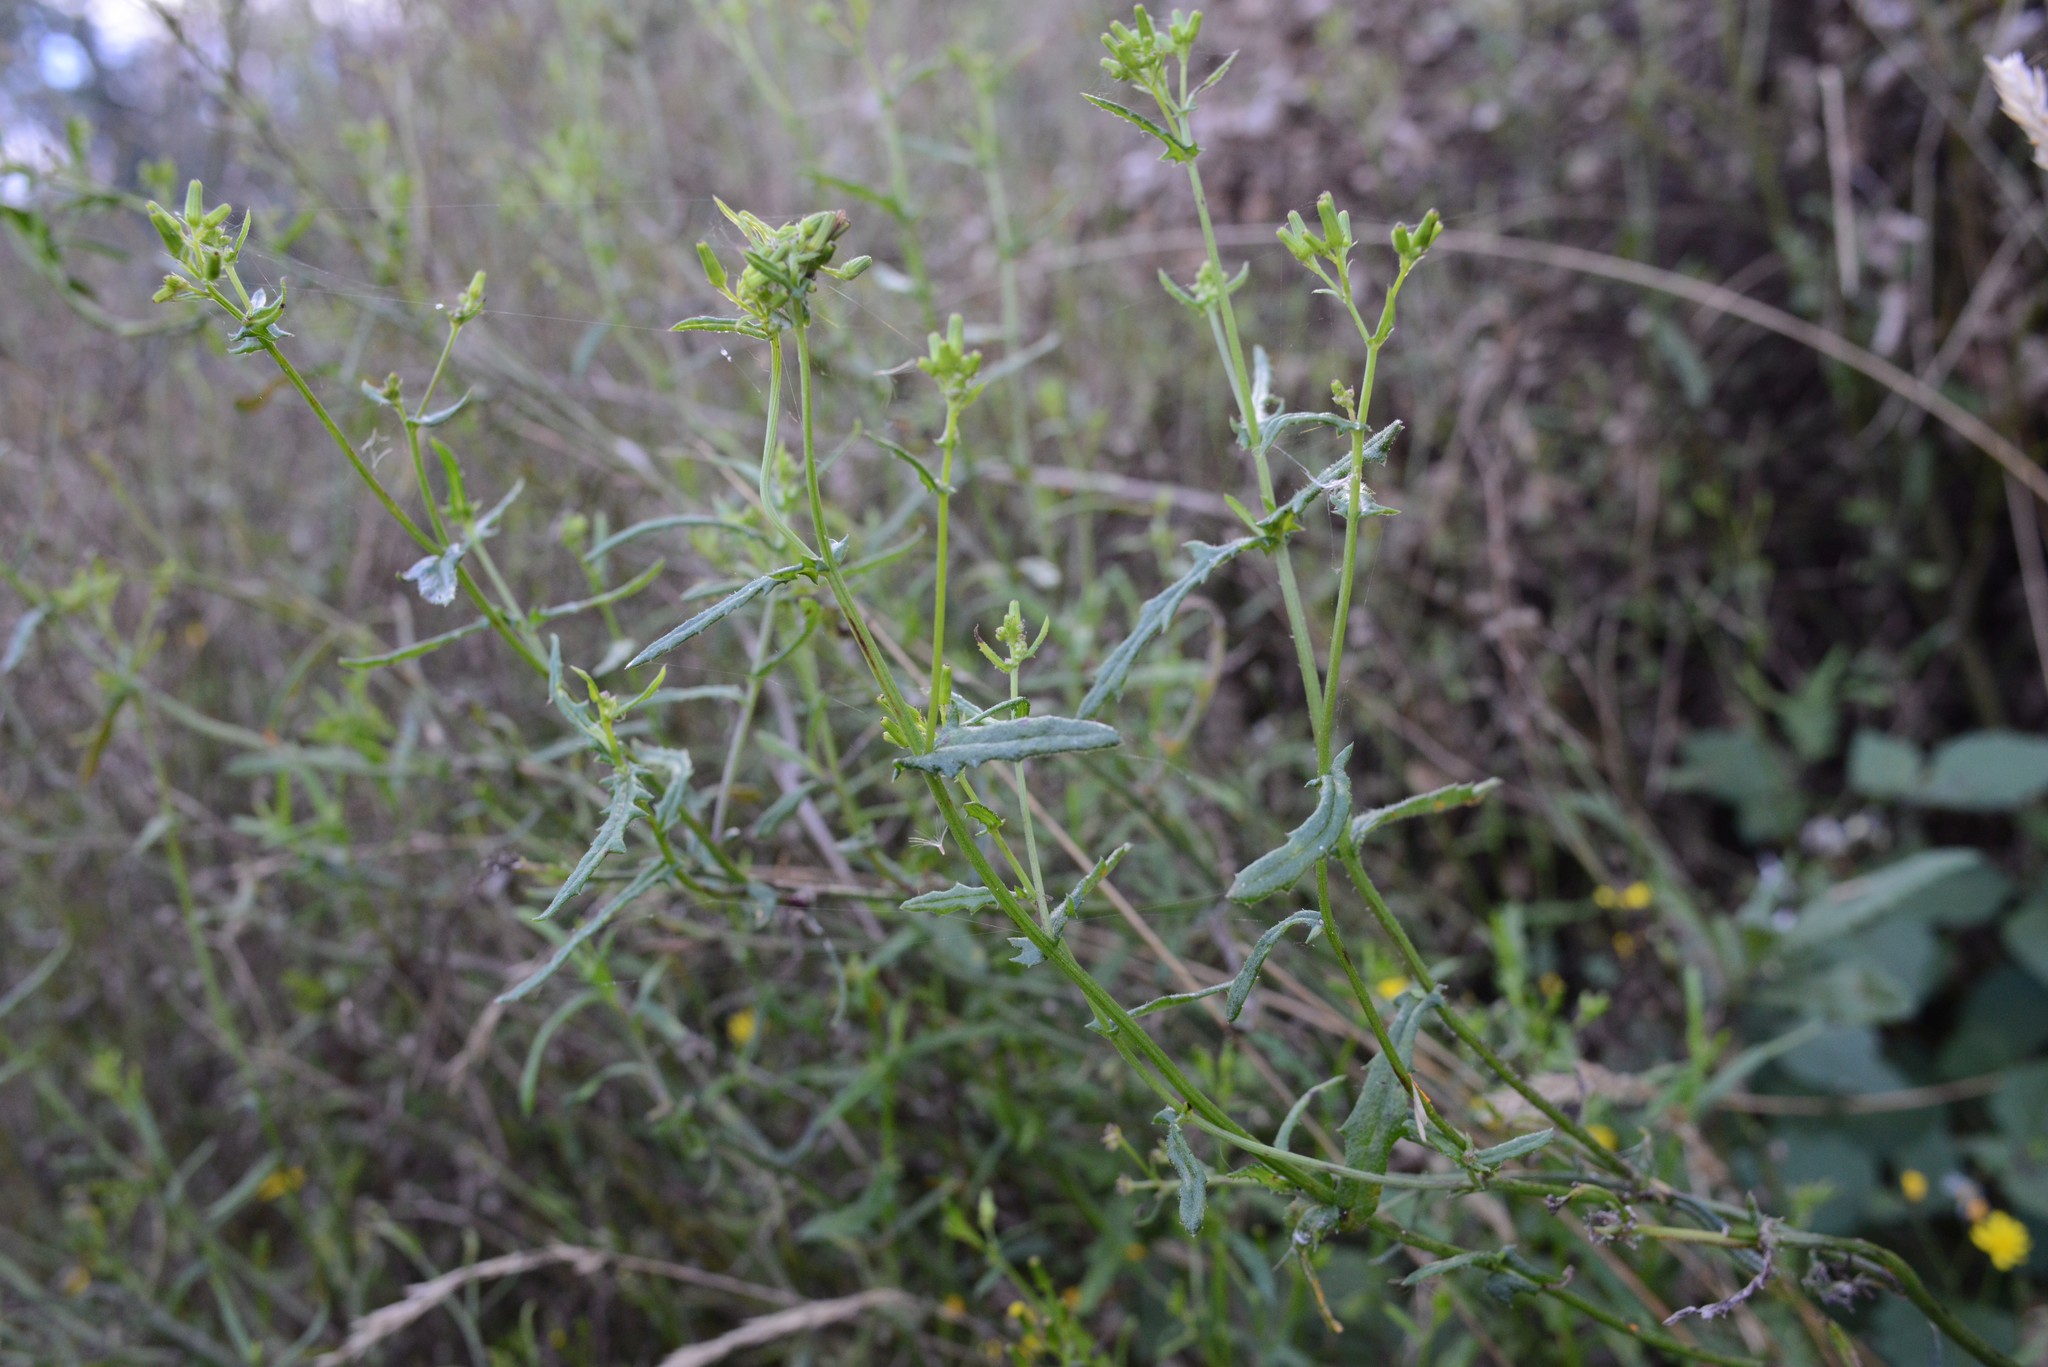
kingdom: Plantae
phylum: Tracheophyta
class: Magnoliopsida
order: Asterales
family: Asteraceae
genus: Senecio
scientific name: Senecio hispidulus
